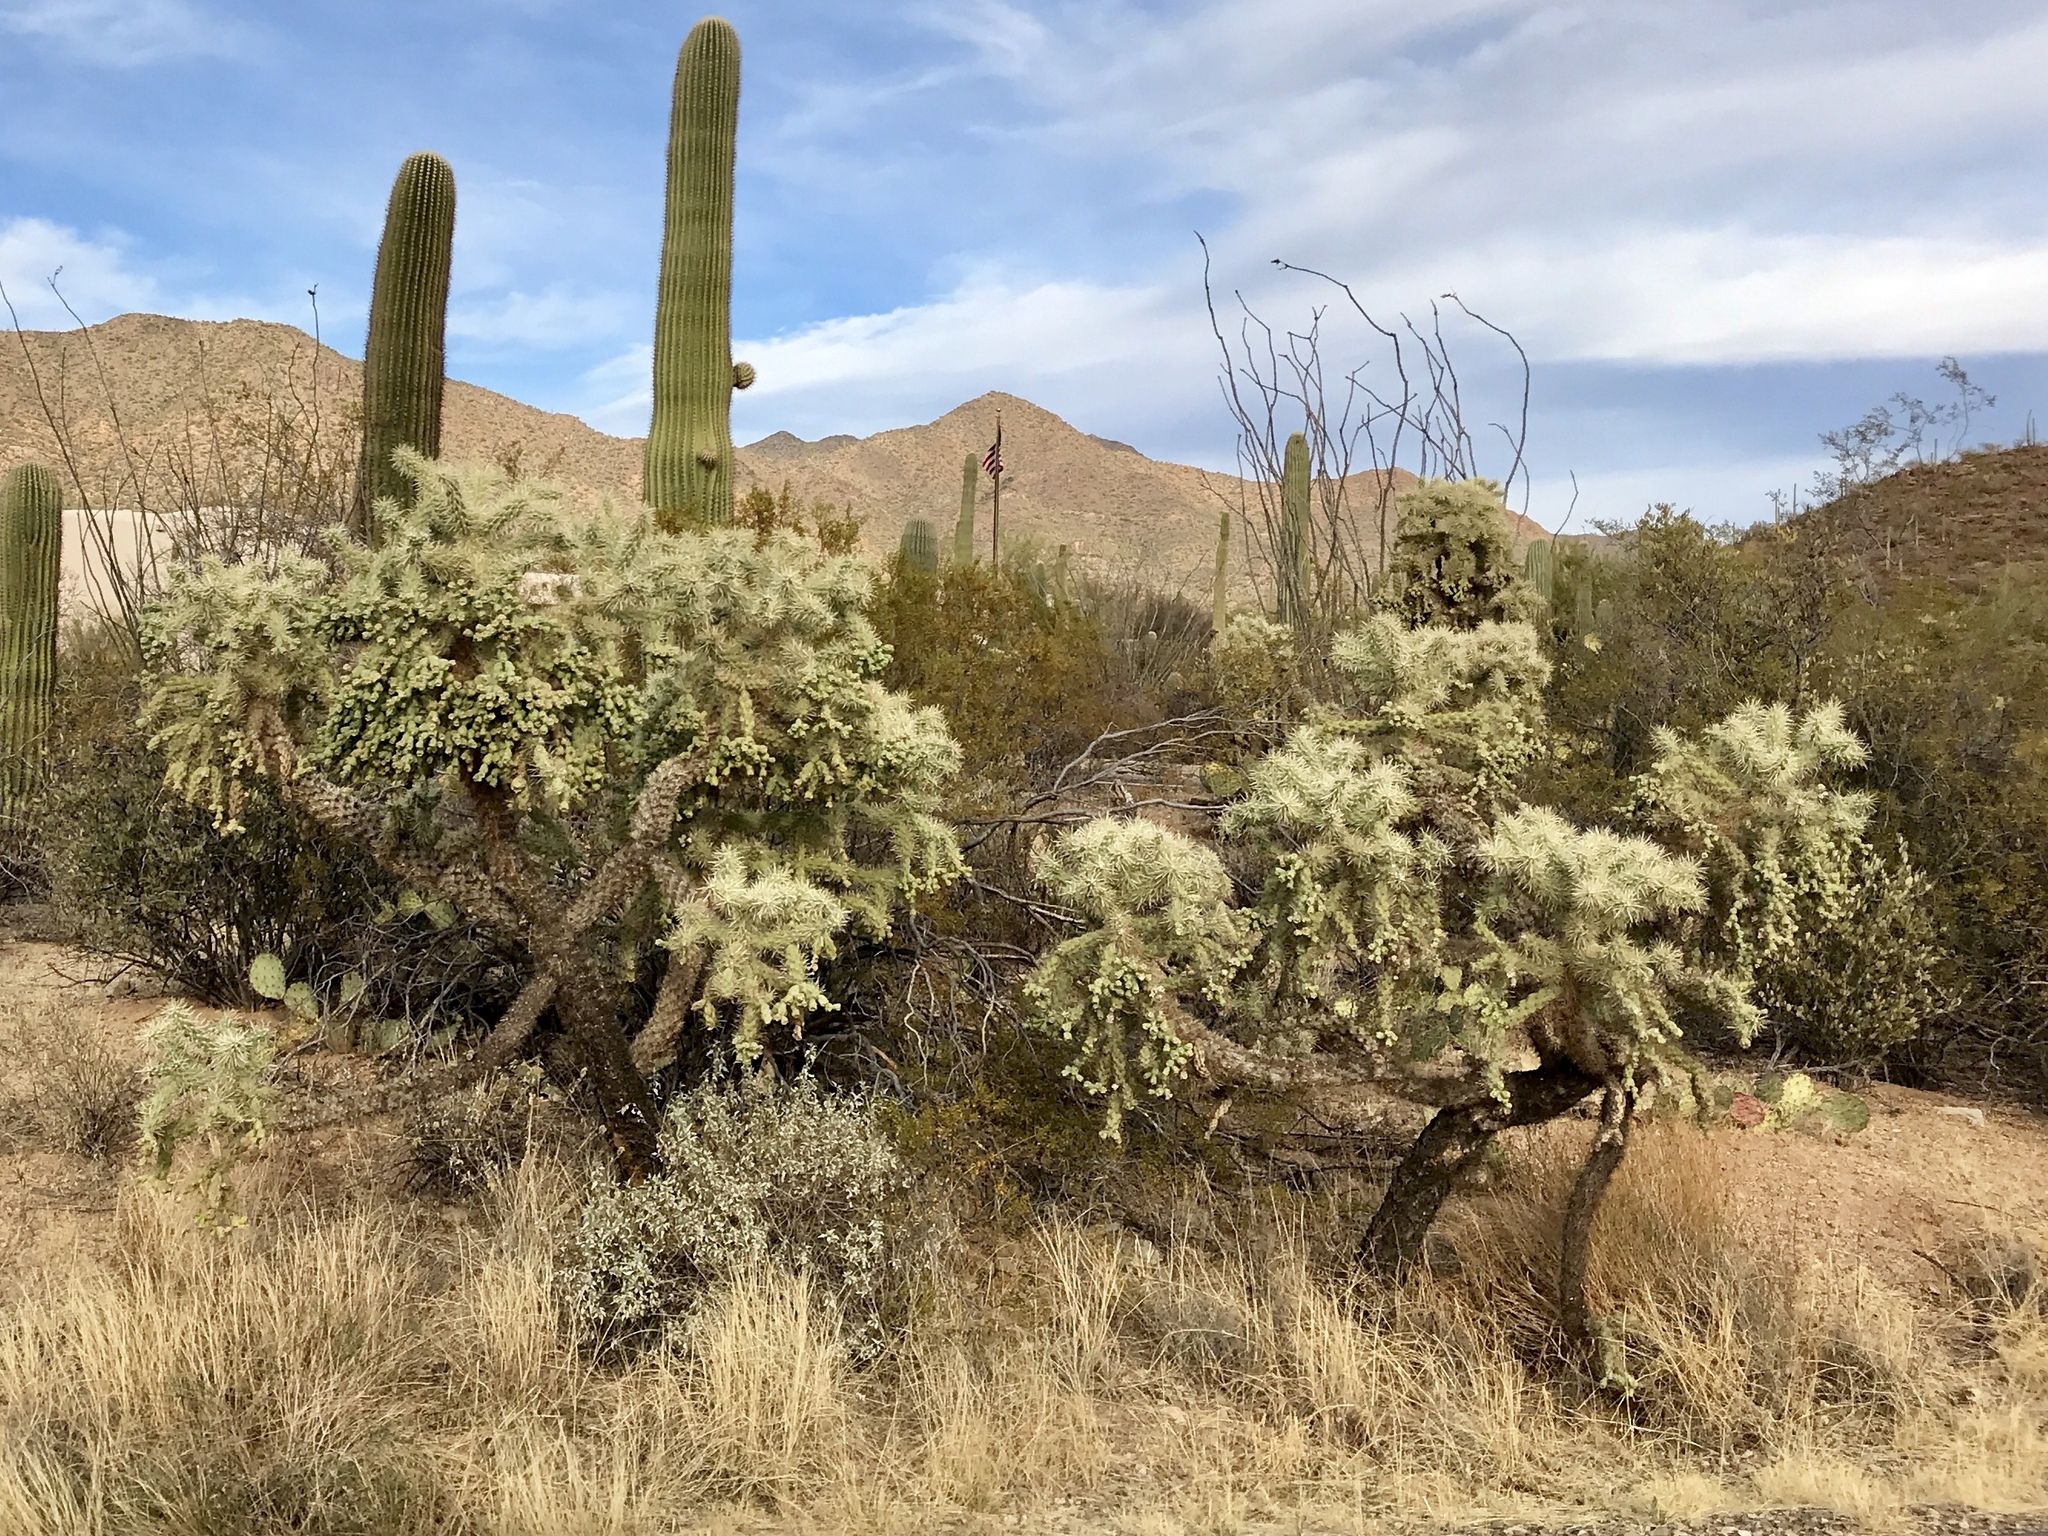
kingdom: Plantae
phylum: Tracheophyta
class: Magnoliopsida
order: Caryophyllales
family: Cactaceae
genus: Cylindropuntia
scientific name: Cylindropuntia fulgida
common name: Jumping cholla
